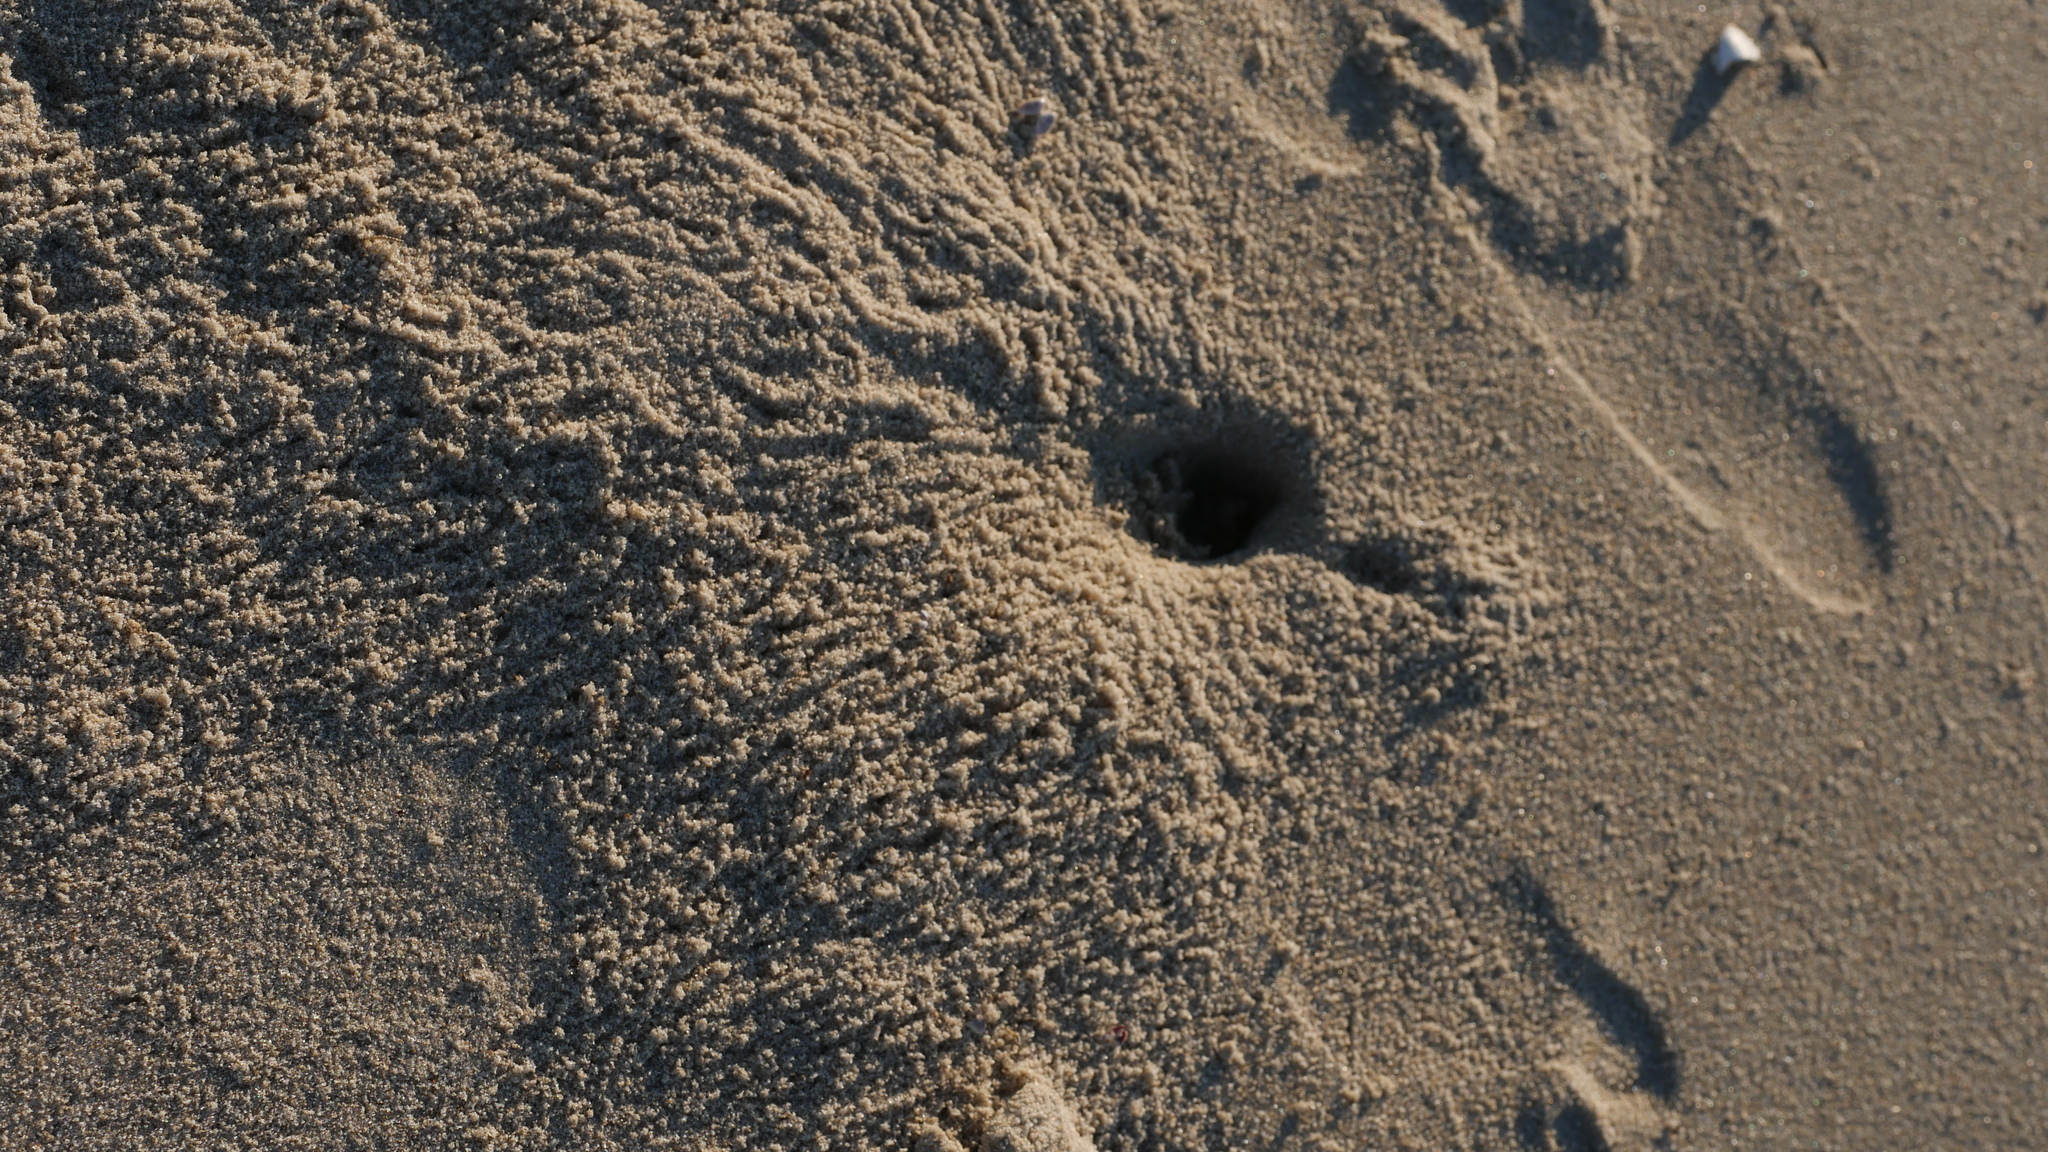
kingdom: Animalia
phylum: Arthropoda
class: Malacostraca
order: Decapoda
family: Ocypodidae
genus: Ocypode
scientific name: Ocypode quadrata
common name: Ghost crab
